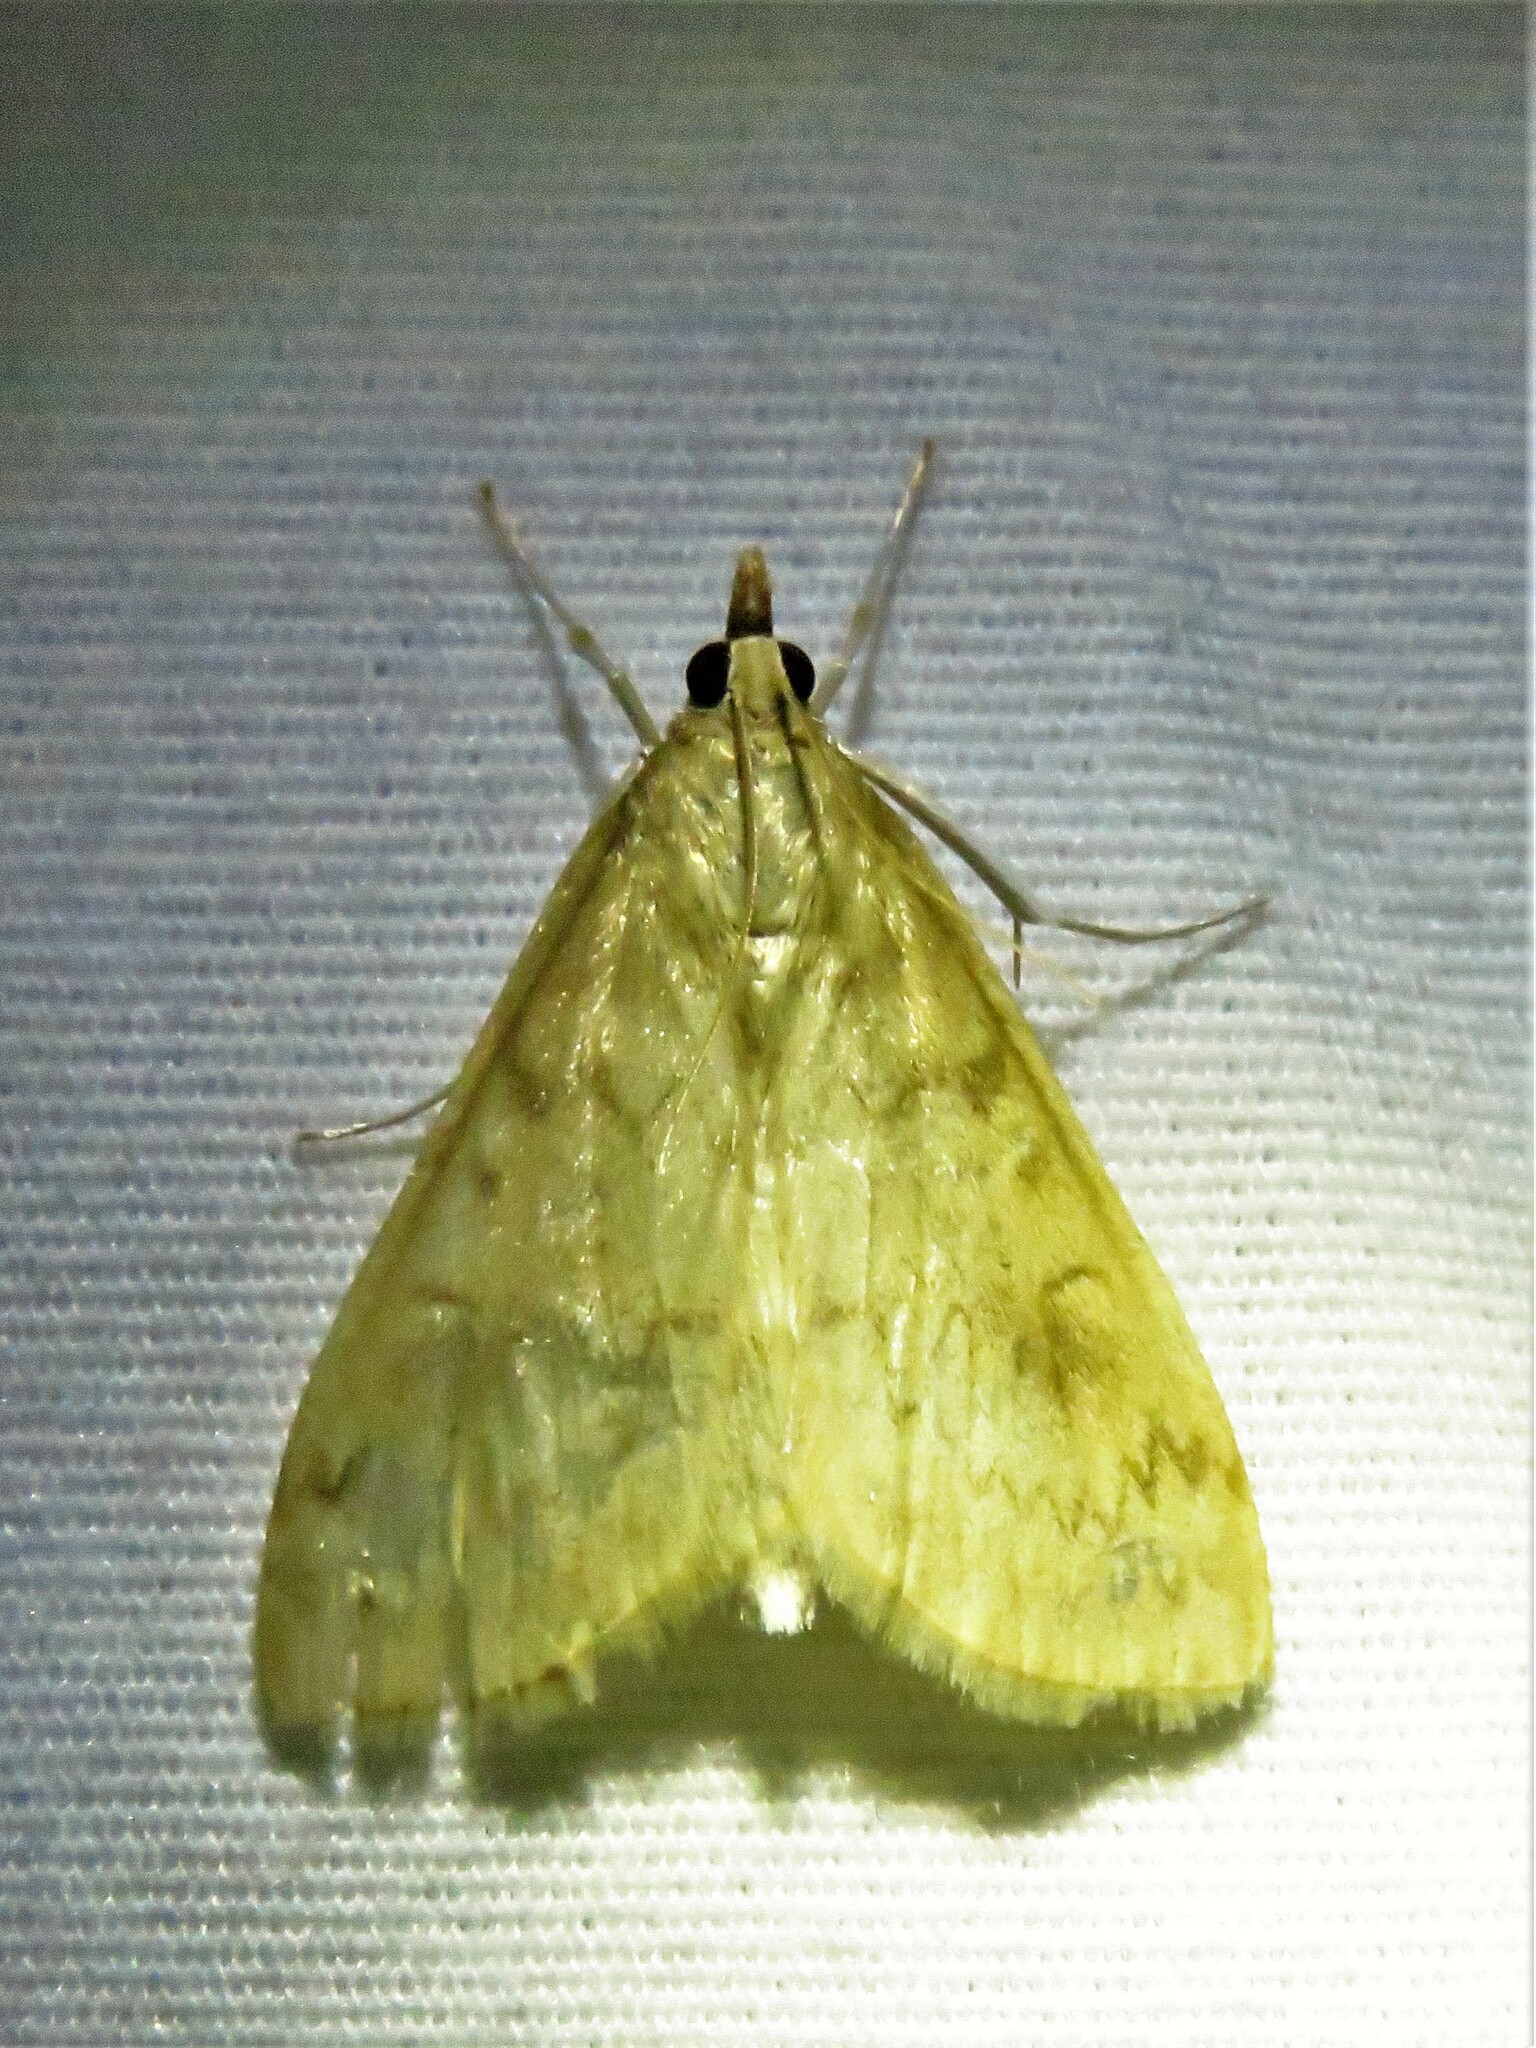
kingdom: Animalia
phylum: Arthropoda
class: Insecta
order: Lepidoptera
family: Crambidae
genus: Ostrinia
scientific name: Ostrinia penitalis
